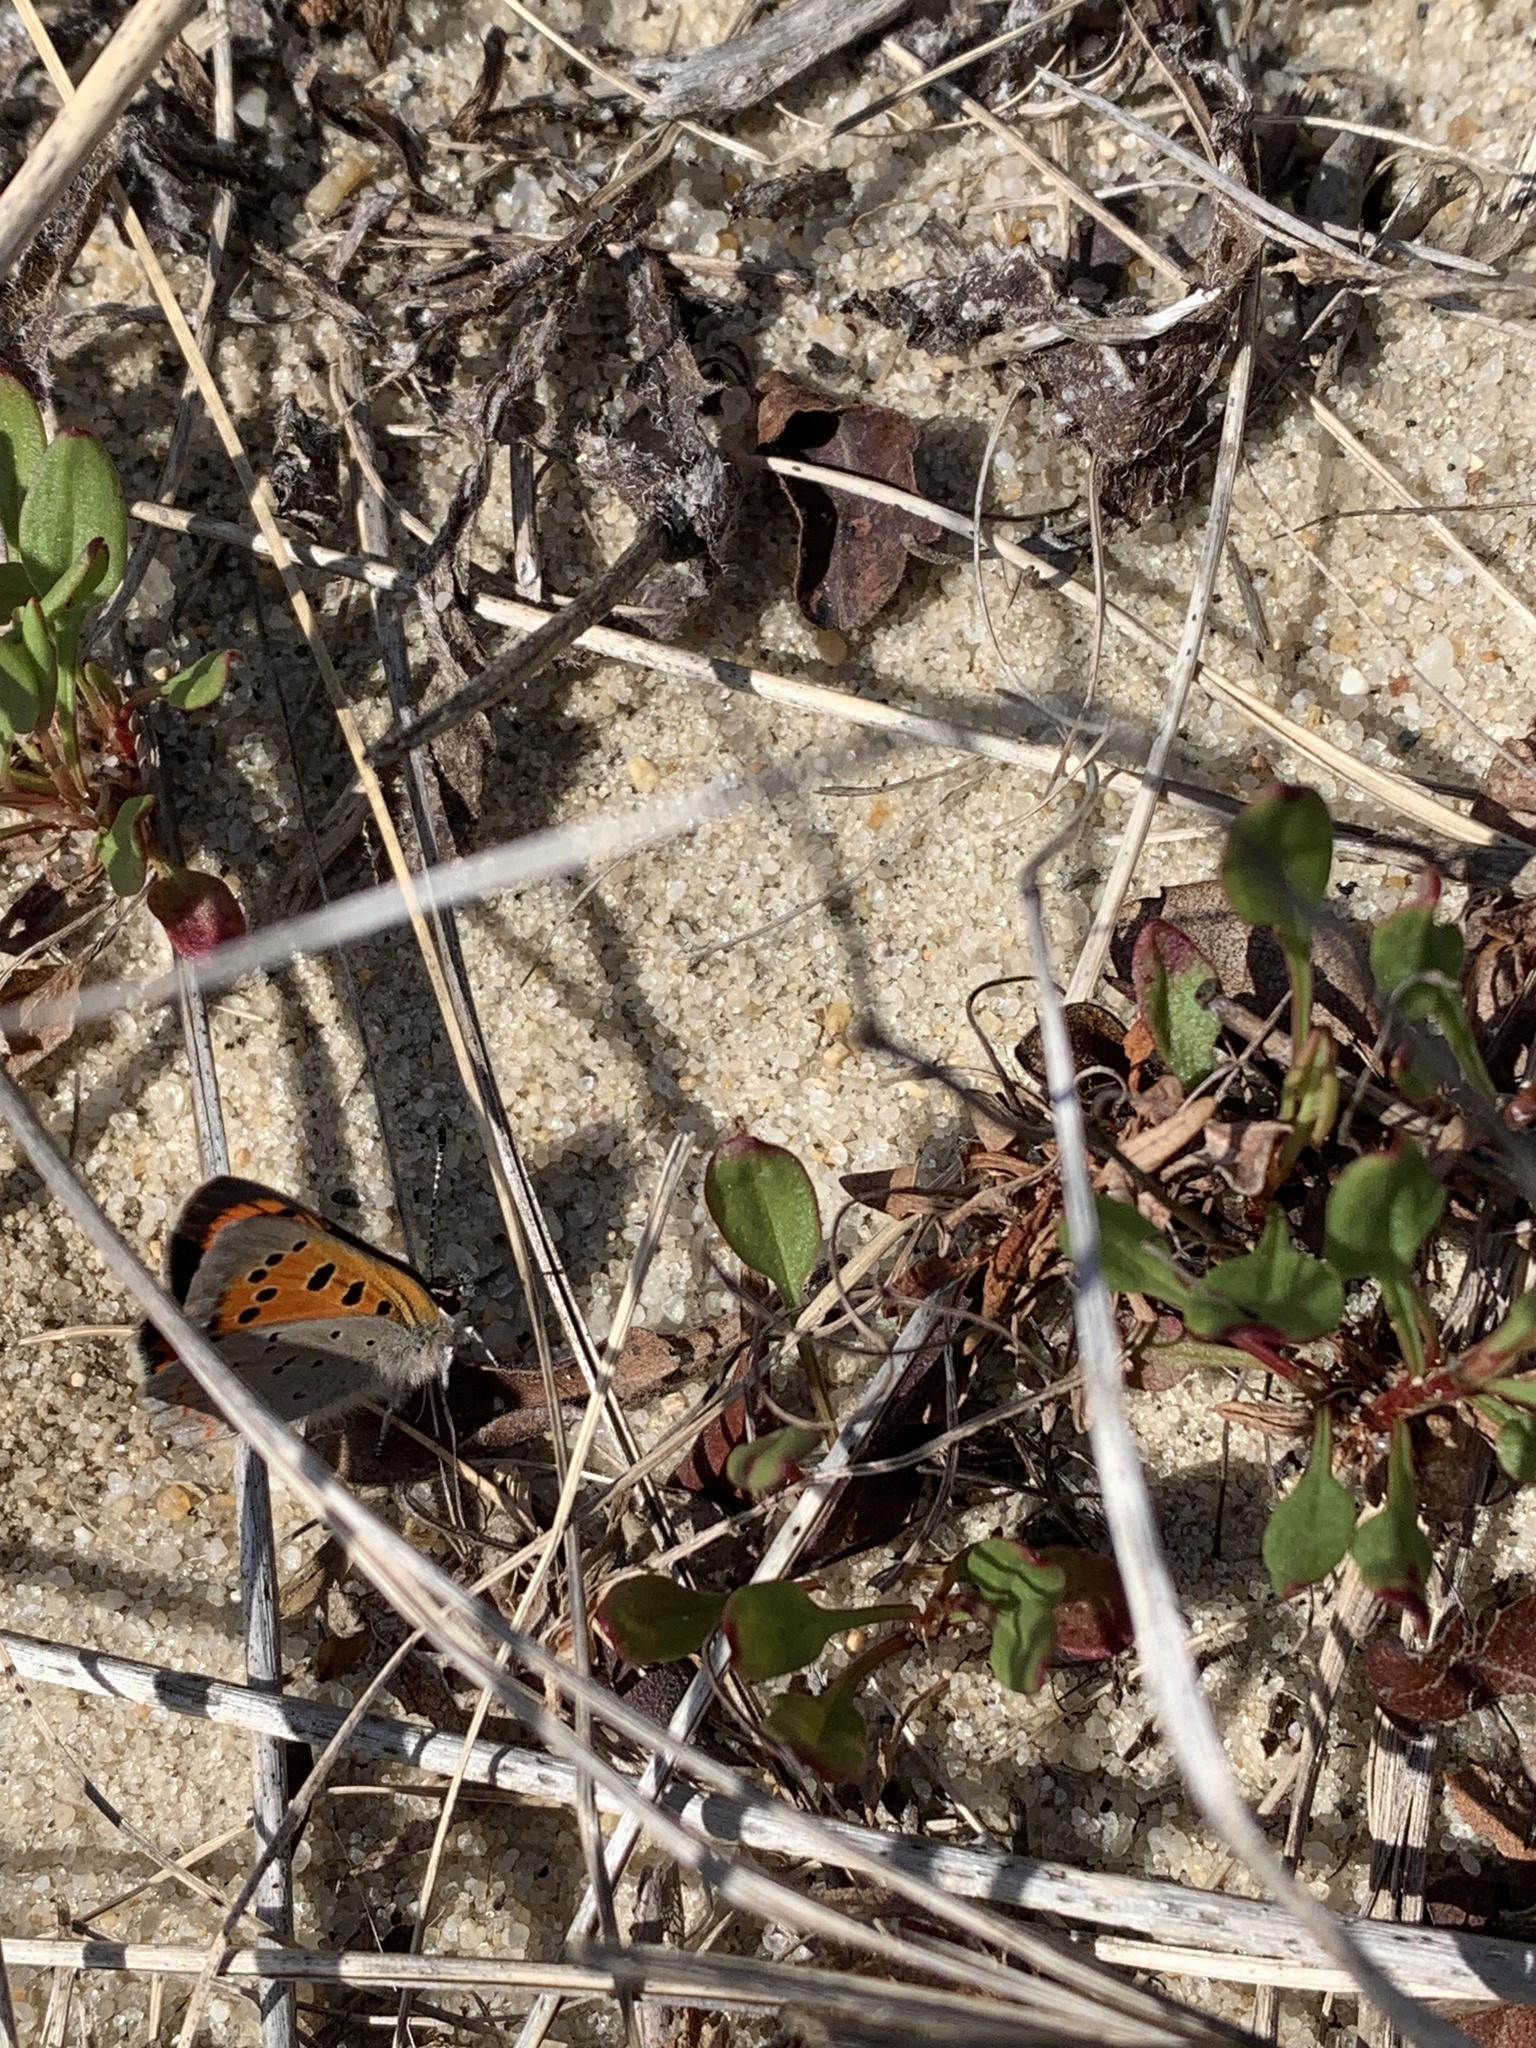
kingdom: Animalia
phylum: Arthropoda
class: Insecta
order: Lepidoptera
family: Lycaenidae
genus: Lycaena
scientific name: Lycaena hypophlaeas
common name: American copper
